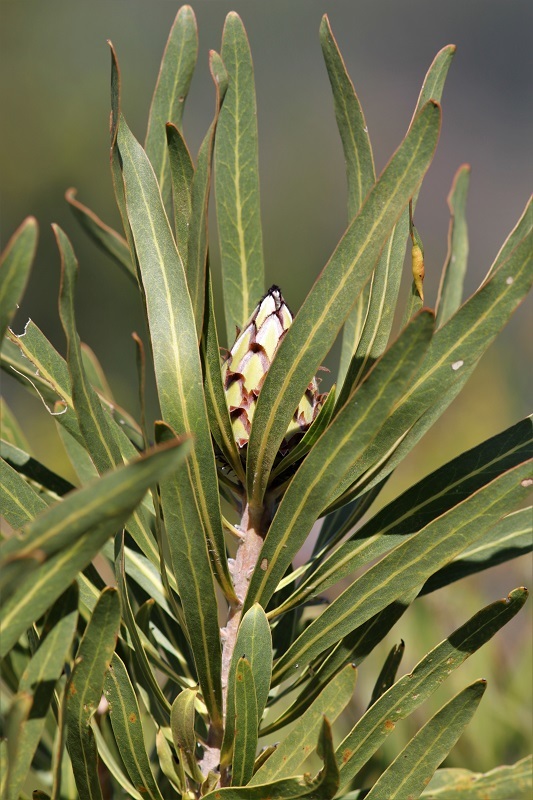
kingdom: Plantae
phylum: Tracheophyta
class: Magnoliopsida
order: Proteales
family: Proteaceae
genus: Protea
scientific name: Protea neriifolia
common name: Blue sugarbush
